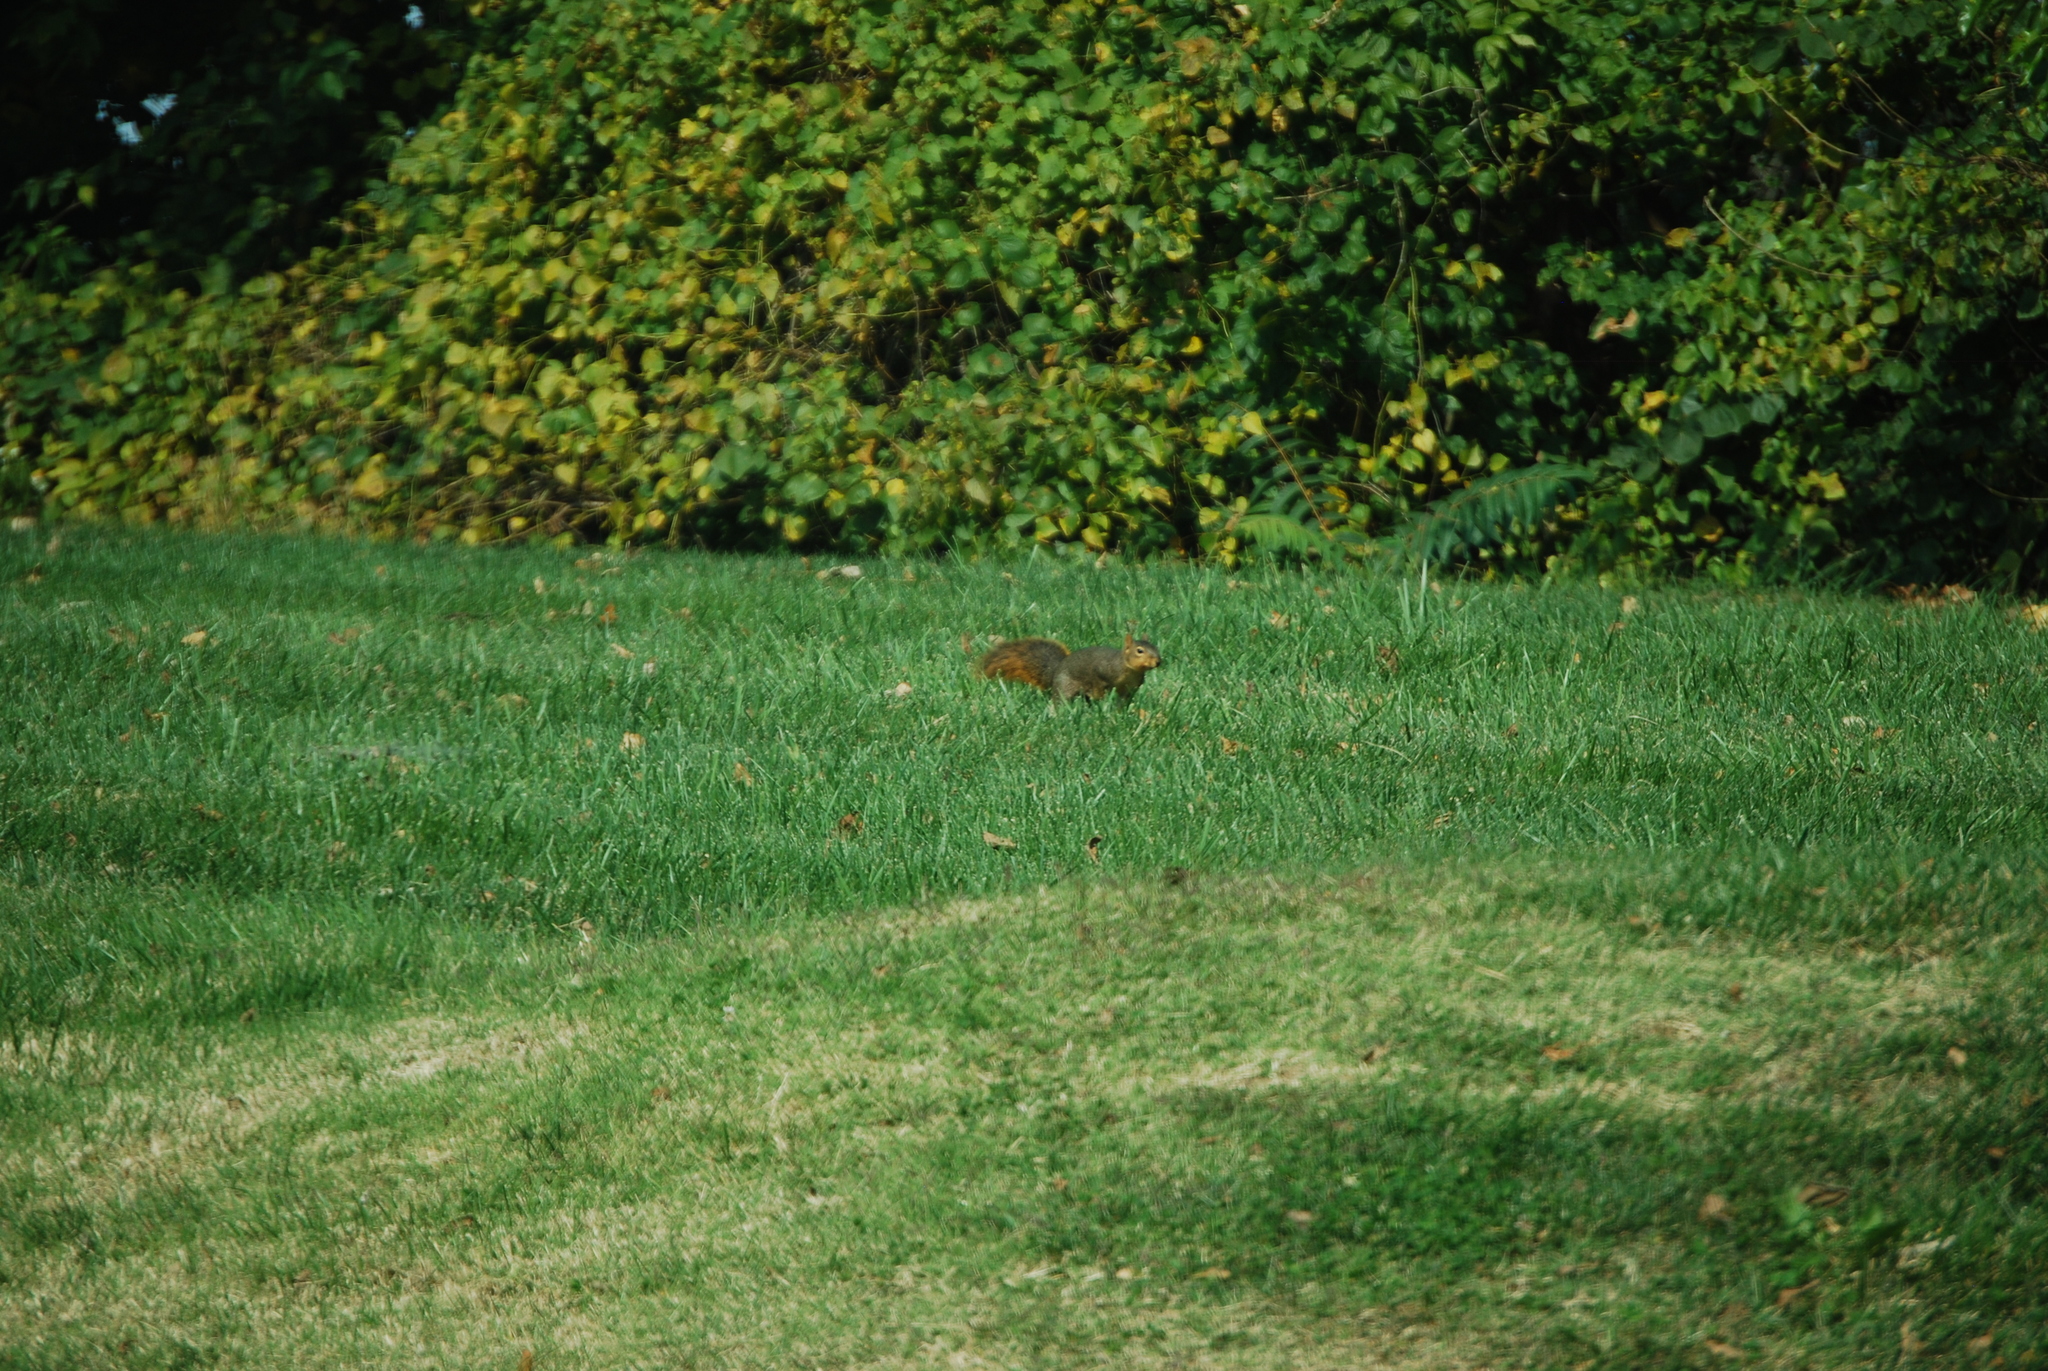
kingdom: Animalia
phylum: Chordata
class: Mammalia
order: Rodentia
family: Sciuridae
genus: Sciurus
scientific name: Sciurus niger
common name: Fox squirrel
